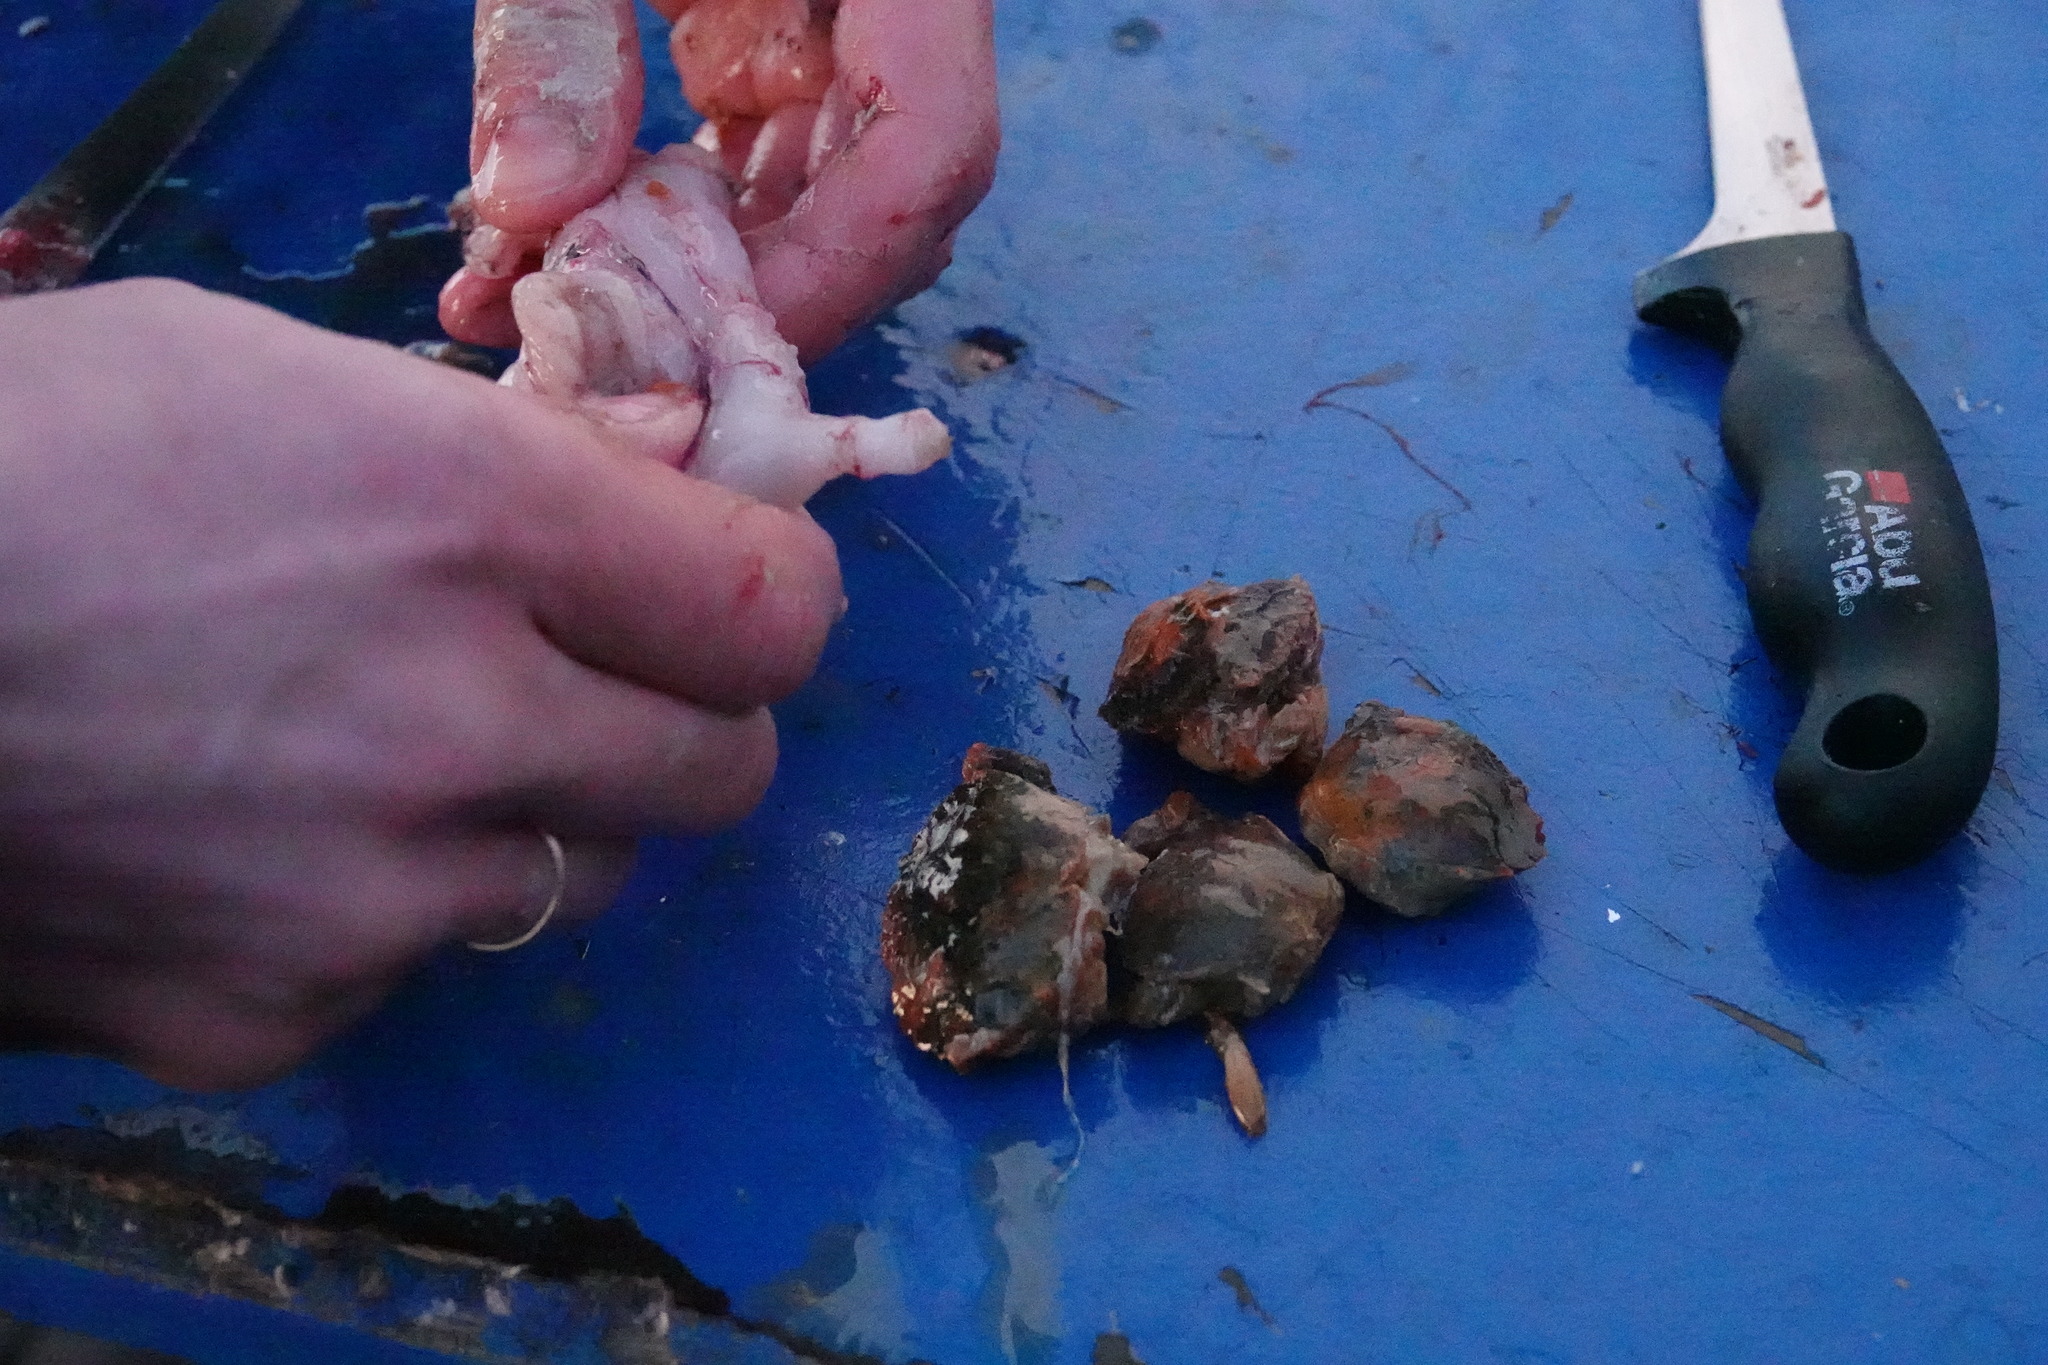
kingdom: Animalia
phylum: Arthropoda
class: Malacostraca
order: Decapoda
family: Carcinidae
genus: Carcinus
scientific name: Carcinus maenas
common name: European green crab
